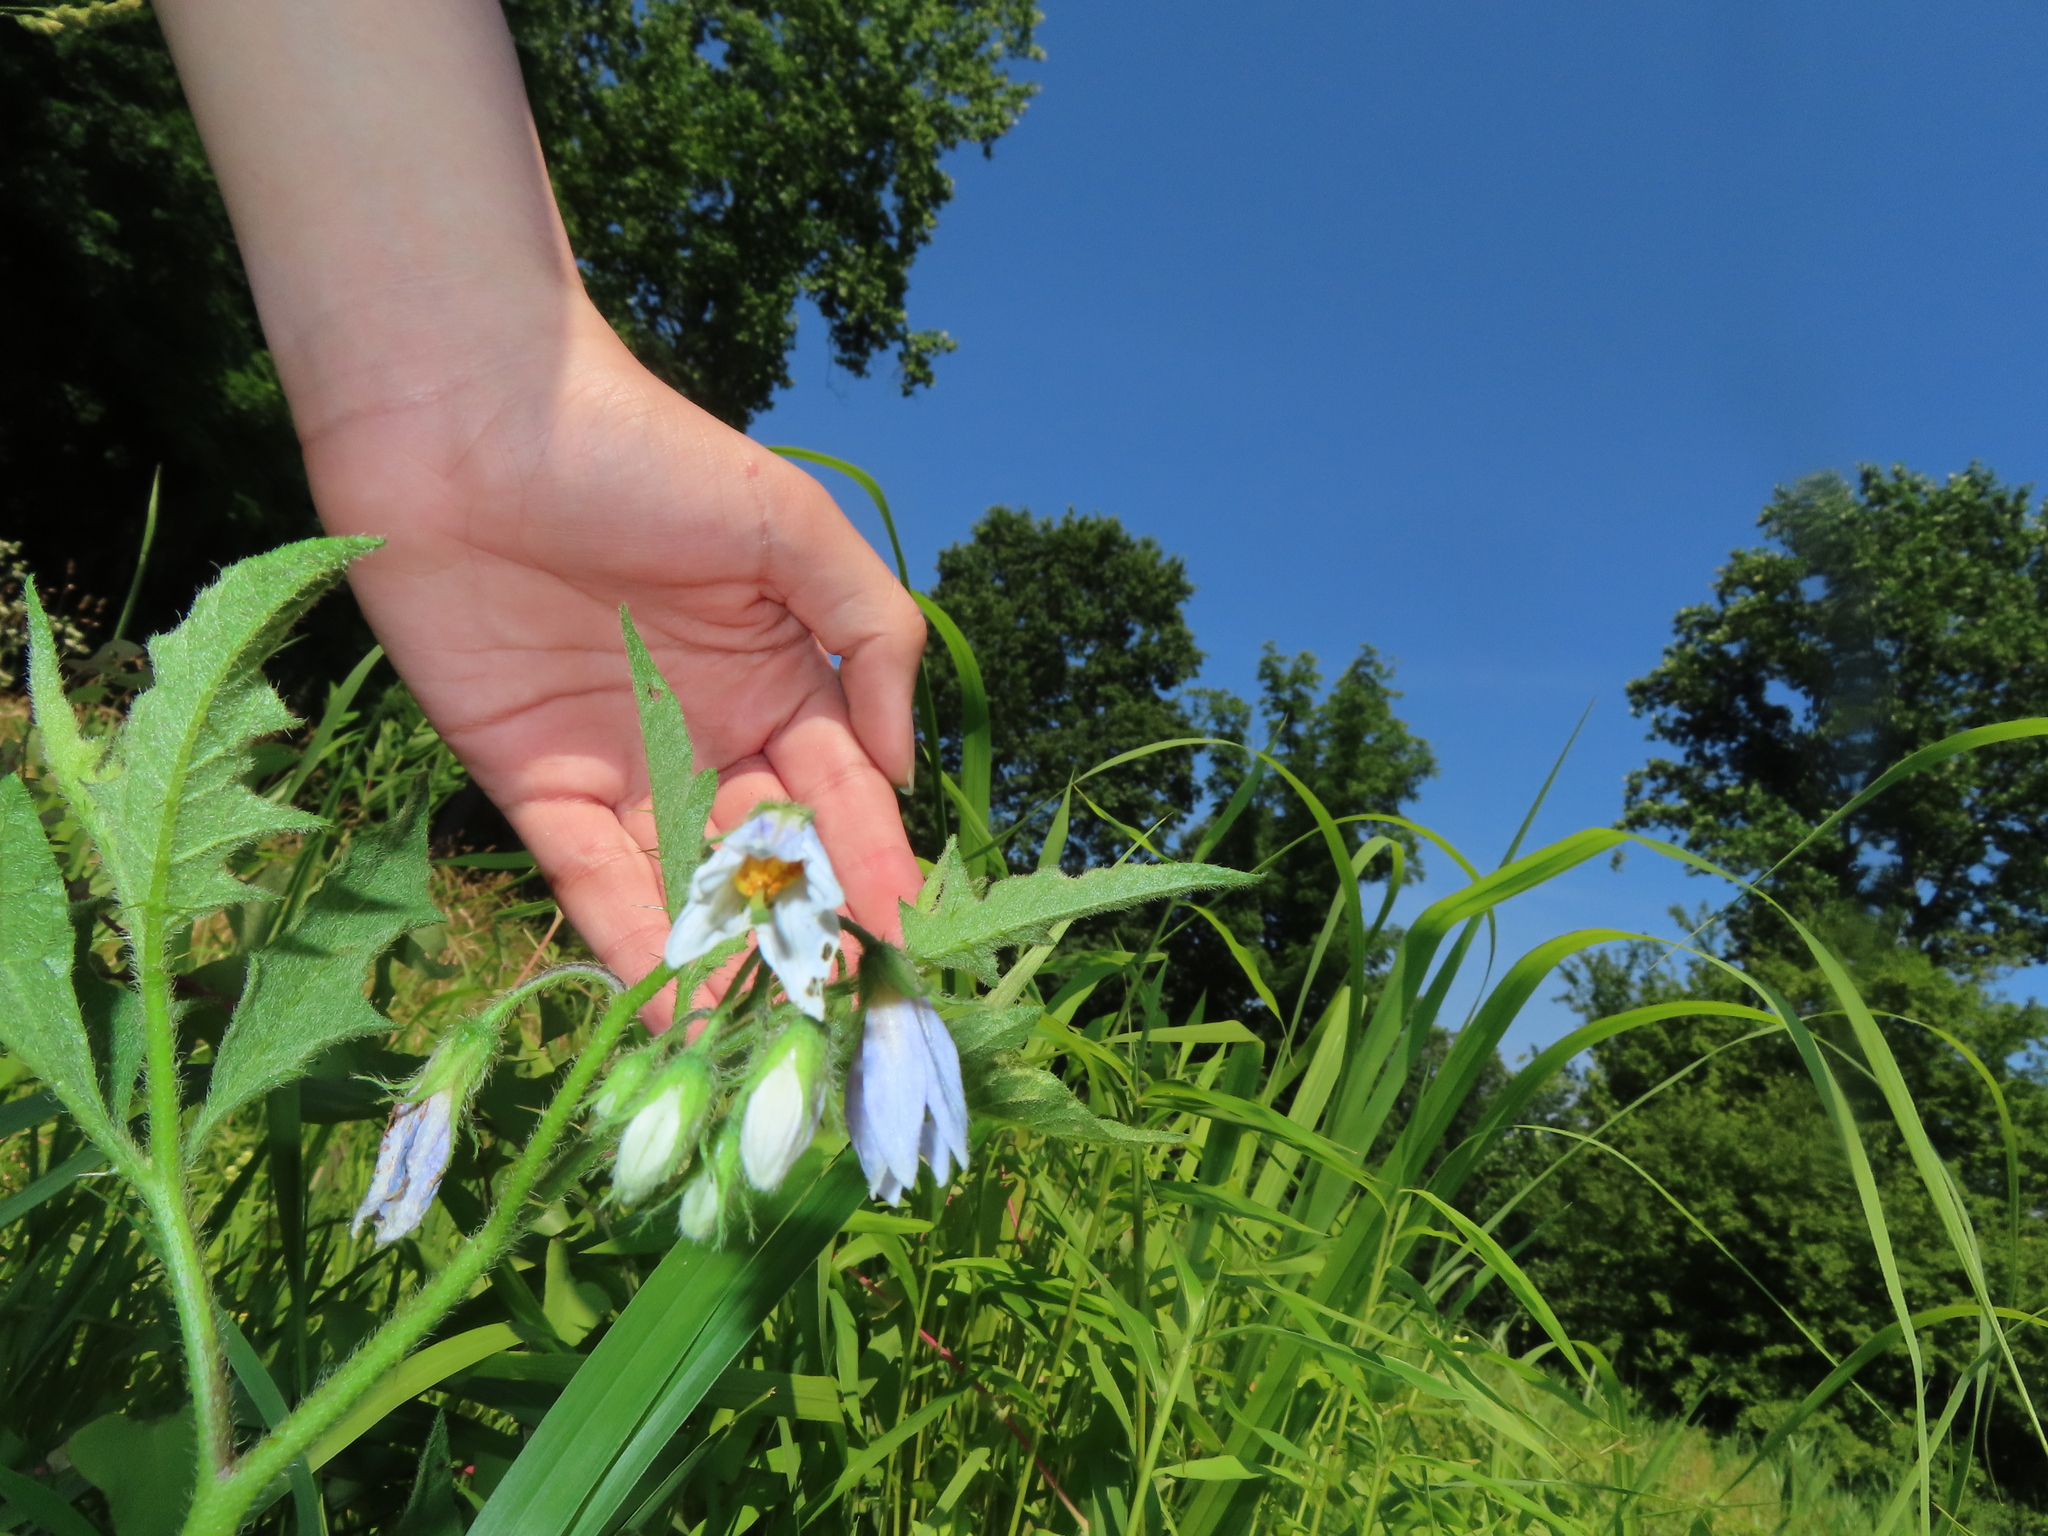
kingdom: Plantae
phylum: Tracheophyta
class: Magnoliopsida
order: Solanales
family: Solanaceae
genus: Solanum
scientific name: Solanum carolinense
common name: Horse-nettle
